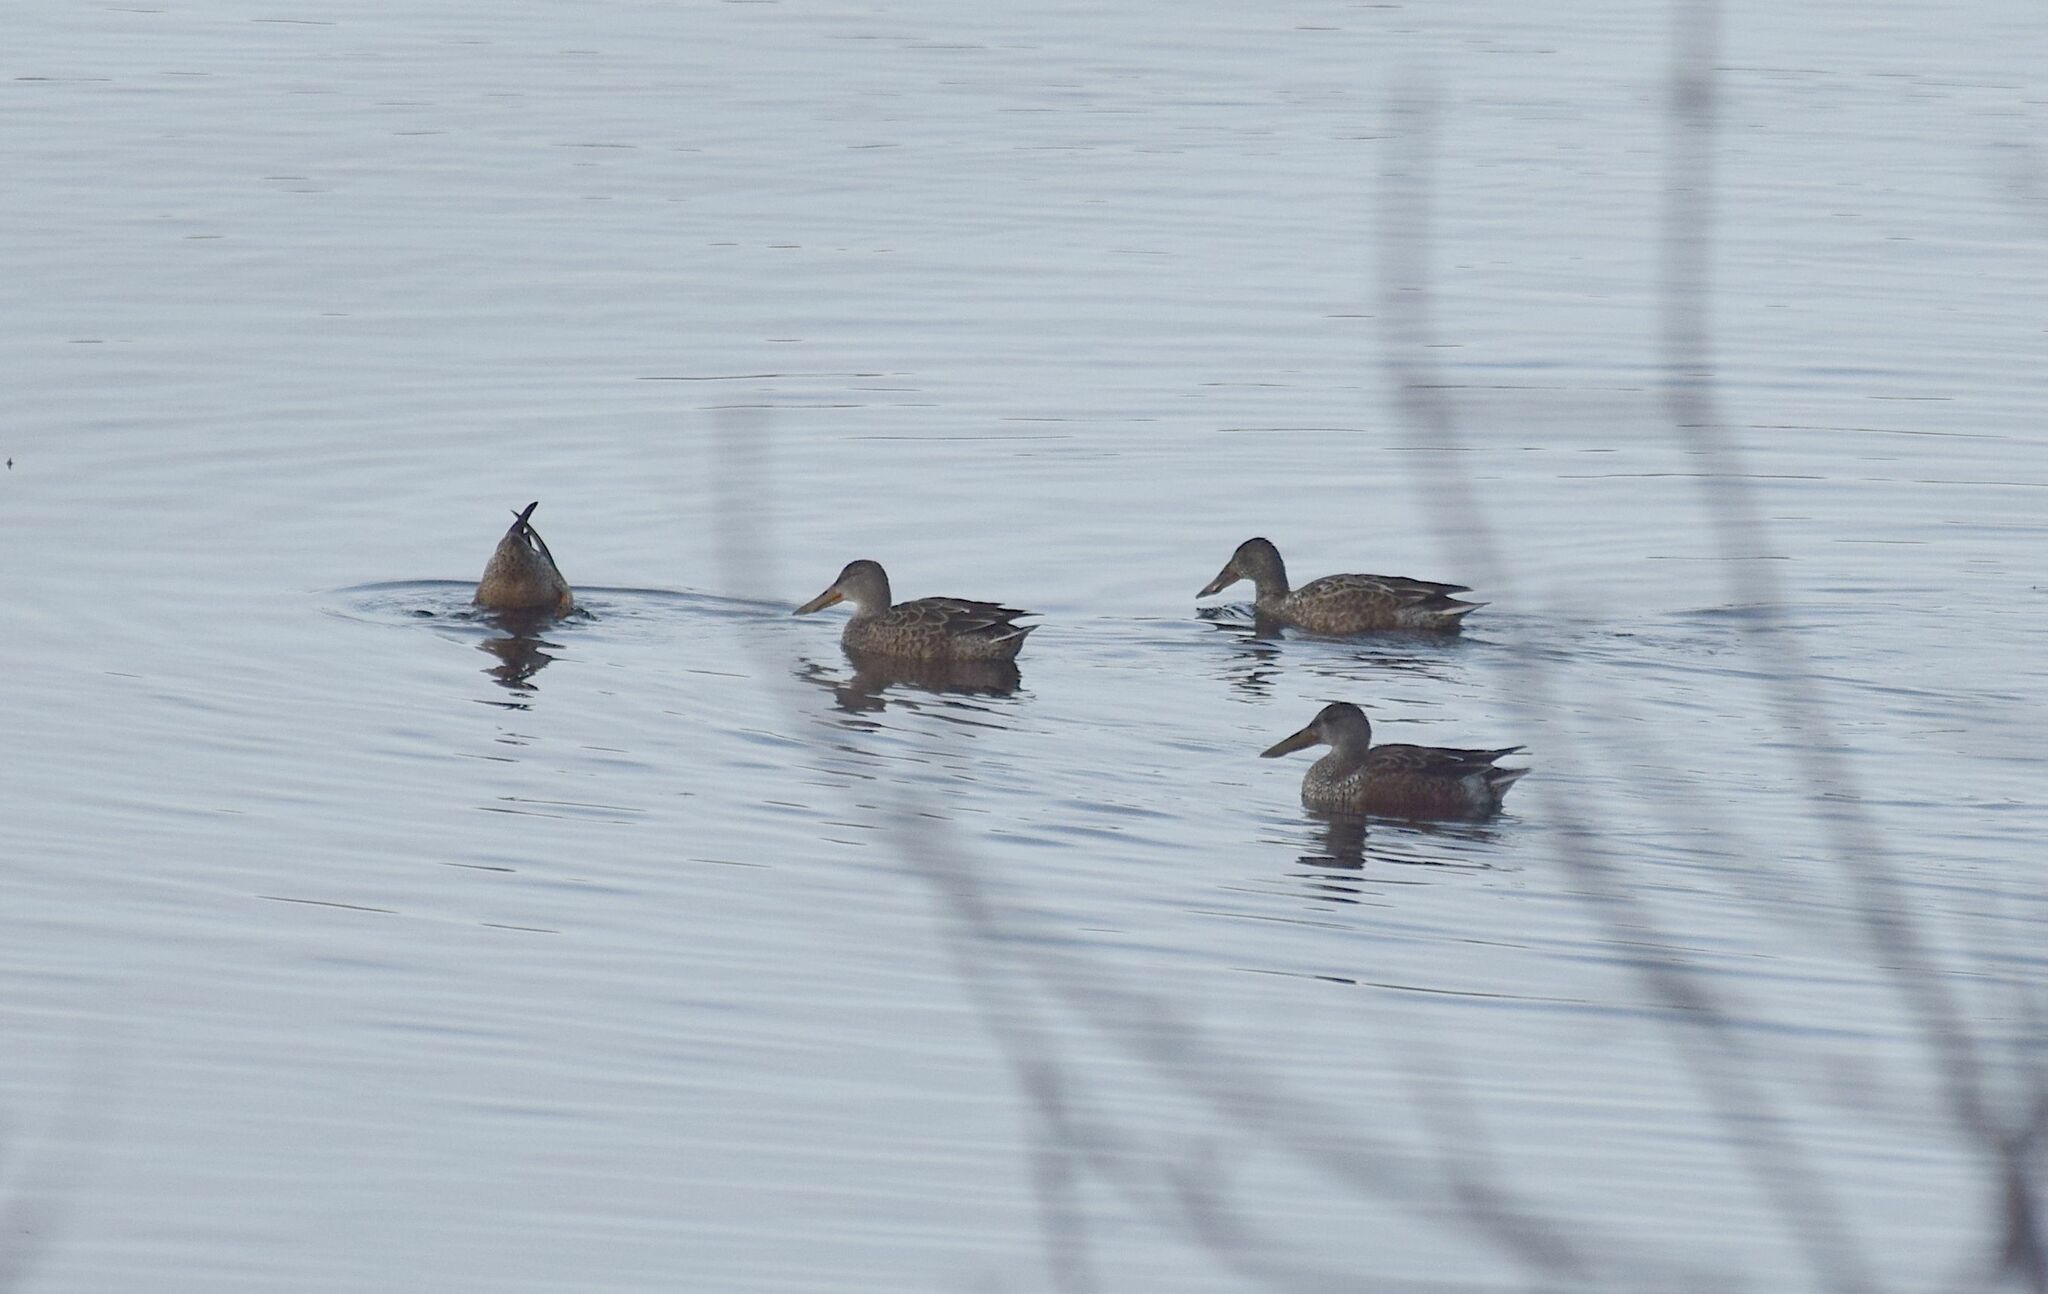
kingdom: Animalia
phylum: Chordata
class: Aves
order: Anseriformes
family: Anatidae
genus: Spatula
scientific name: Spatula clypeata
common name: Northern shoveler
